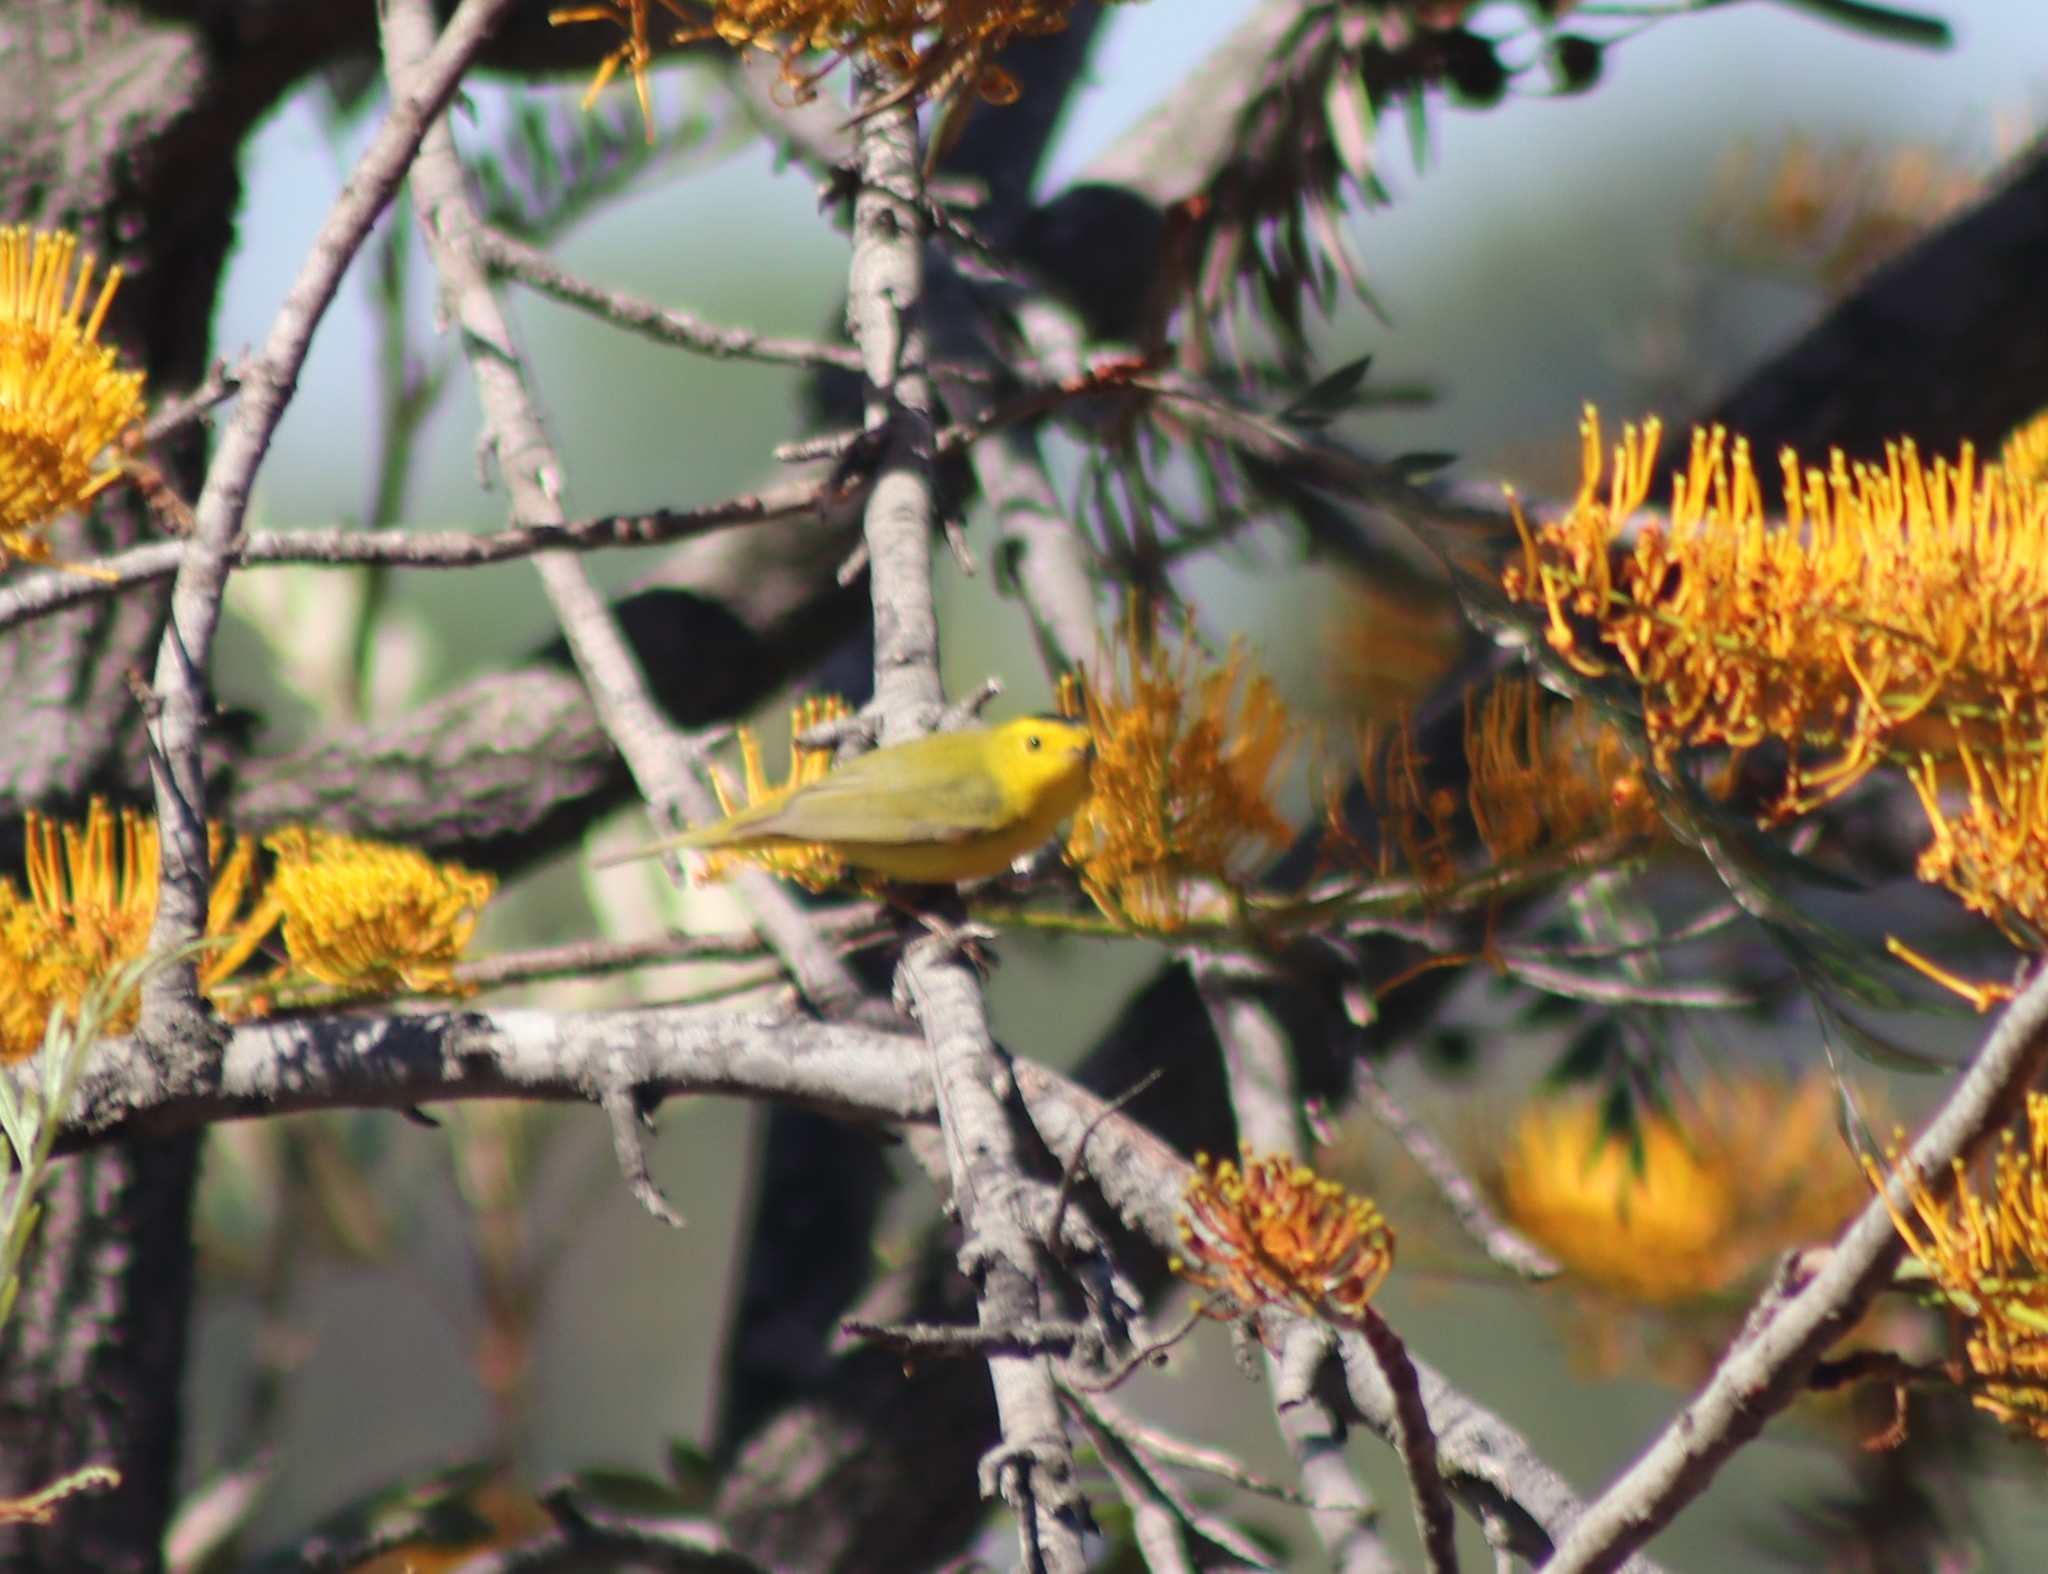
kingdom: Animalia
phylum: Chordata
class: Aves
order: Passeriformes
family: Parulidae
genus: Cardellina
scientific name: Cardellina pusilla
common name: Wilson's warbler
